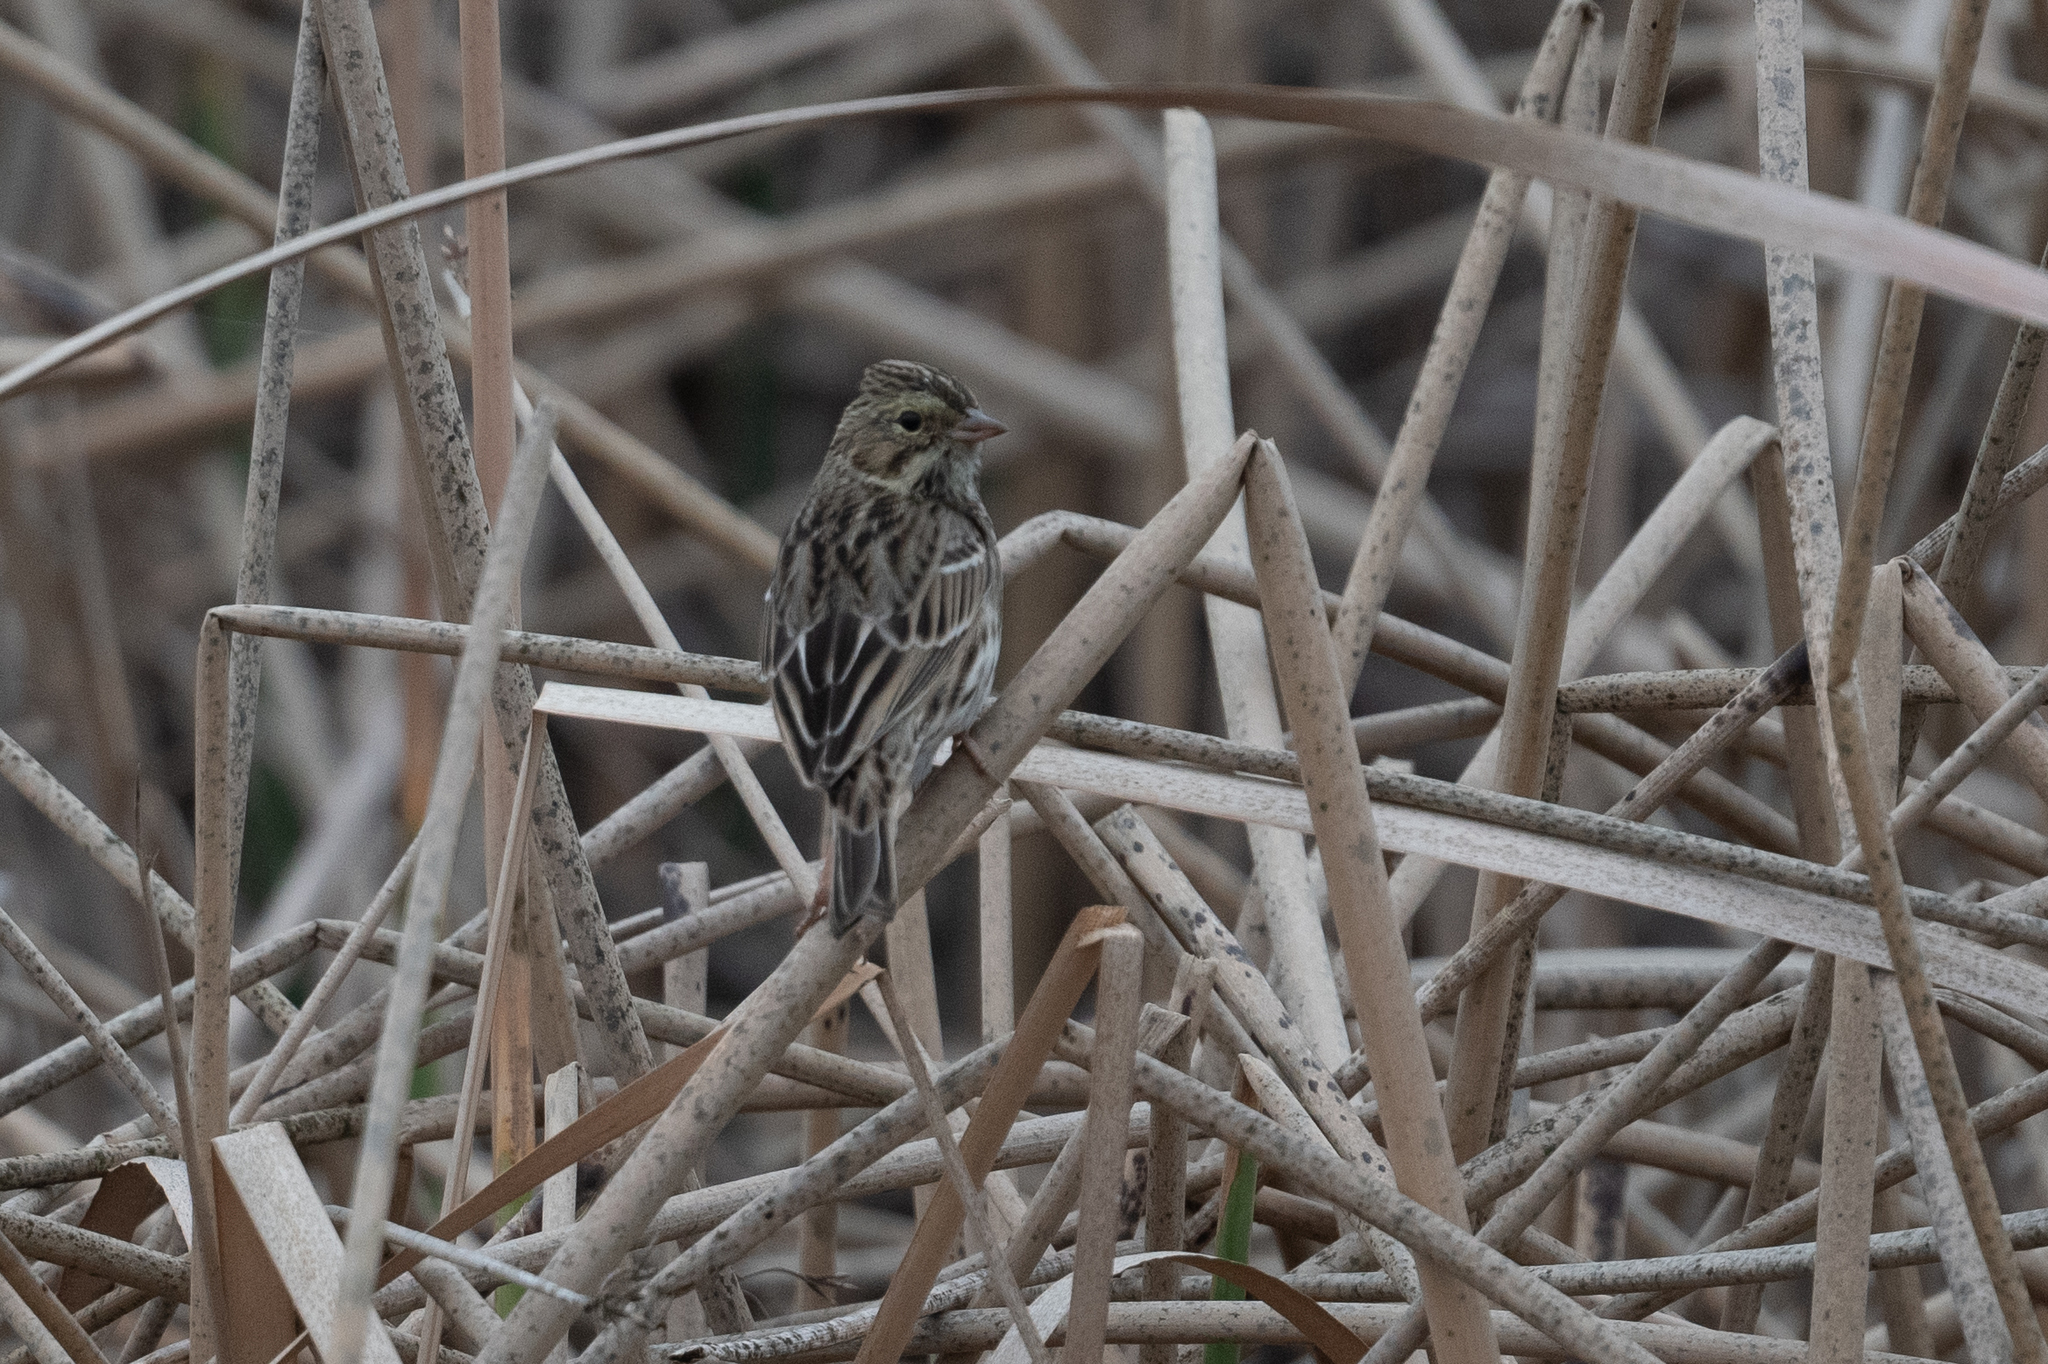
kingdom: Animalia
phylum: Chordata
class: Aves
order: Passeriformes
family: Passerellidae
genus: Passerculus
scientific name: Passerculus sandwichensis
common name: Savannah sparrow
